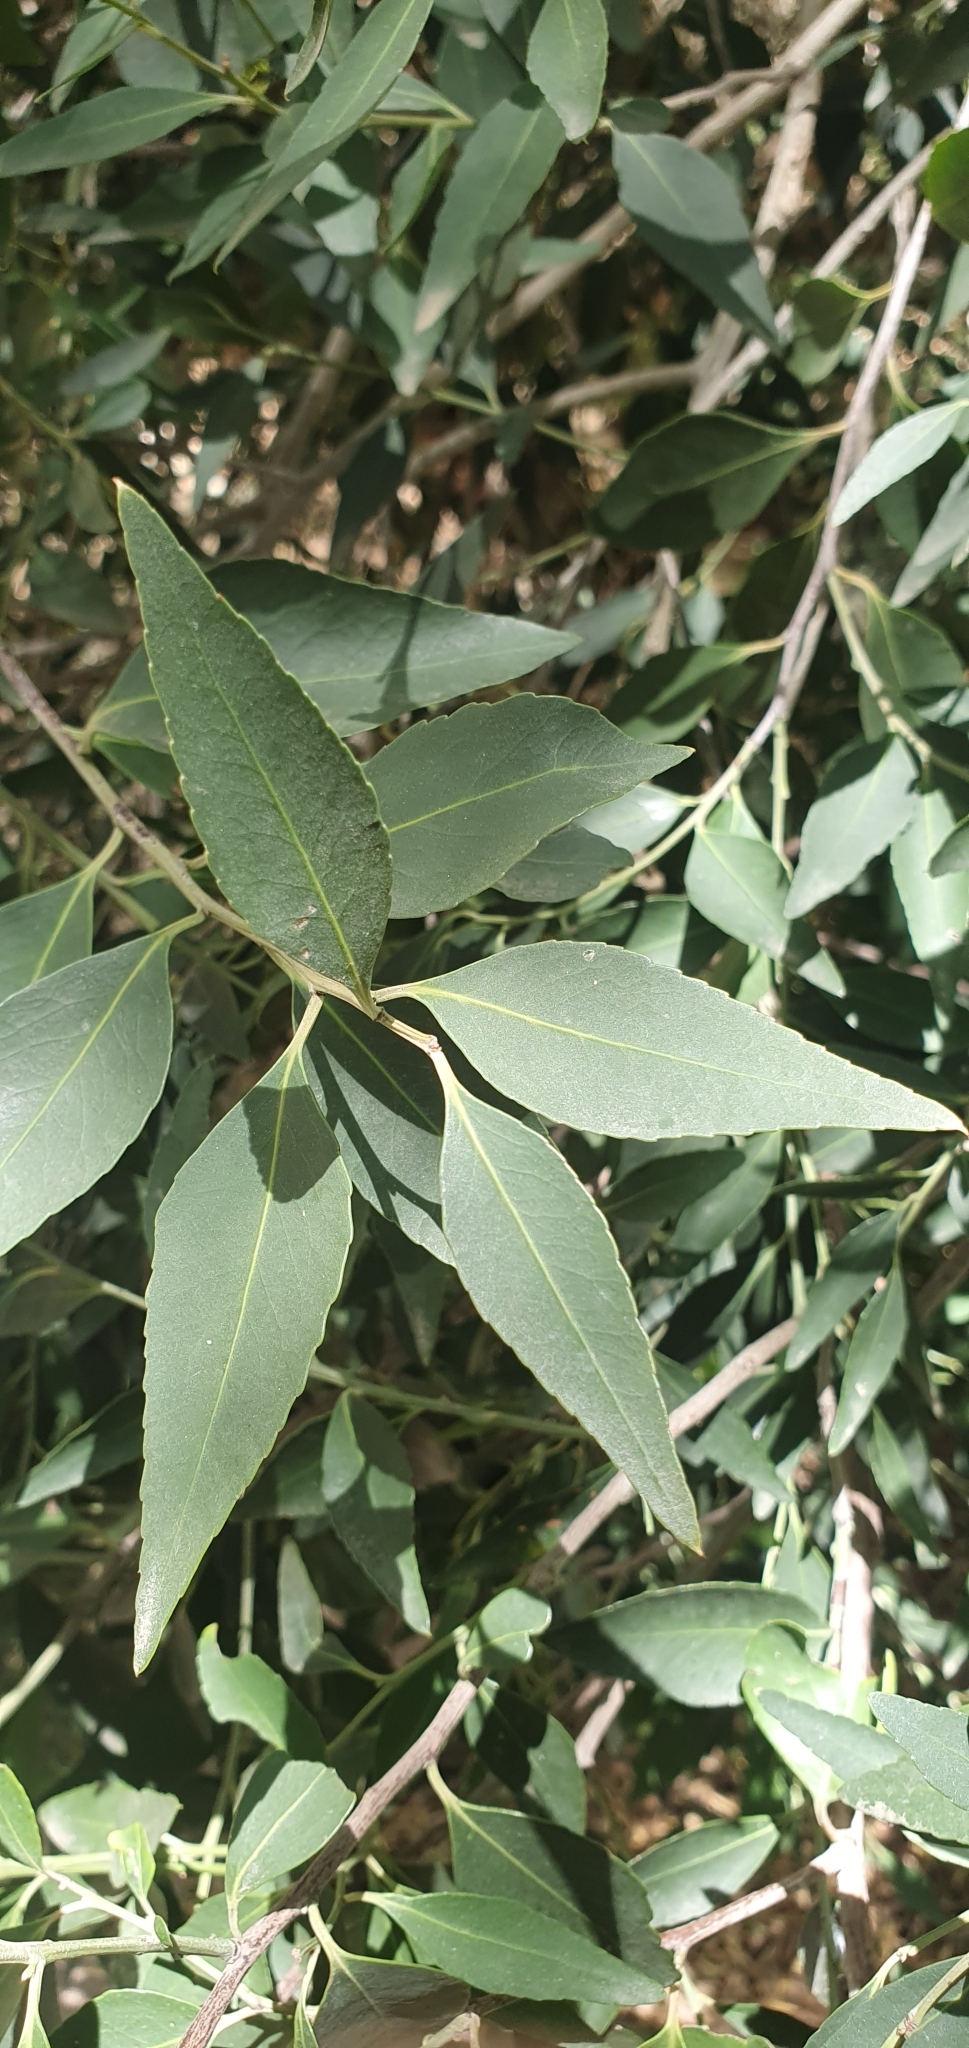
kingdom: Plantae
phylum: Tracheophyta
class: Magnoliopsida
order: Celastrales
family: Celastraceae
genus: Gymnosporia
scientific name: Gymnosporia acuminata
